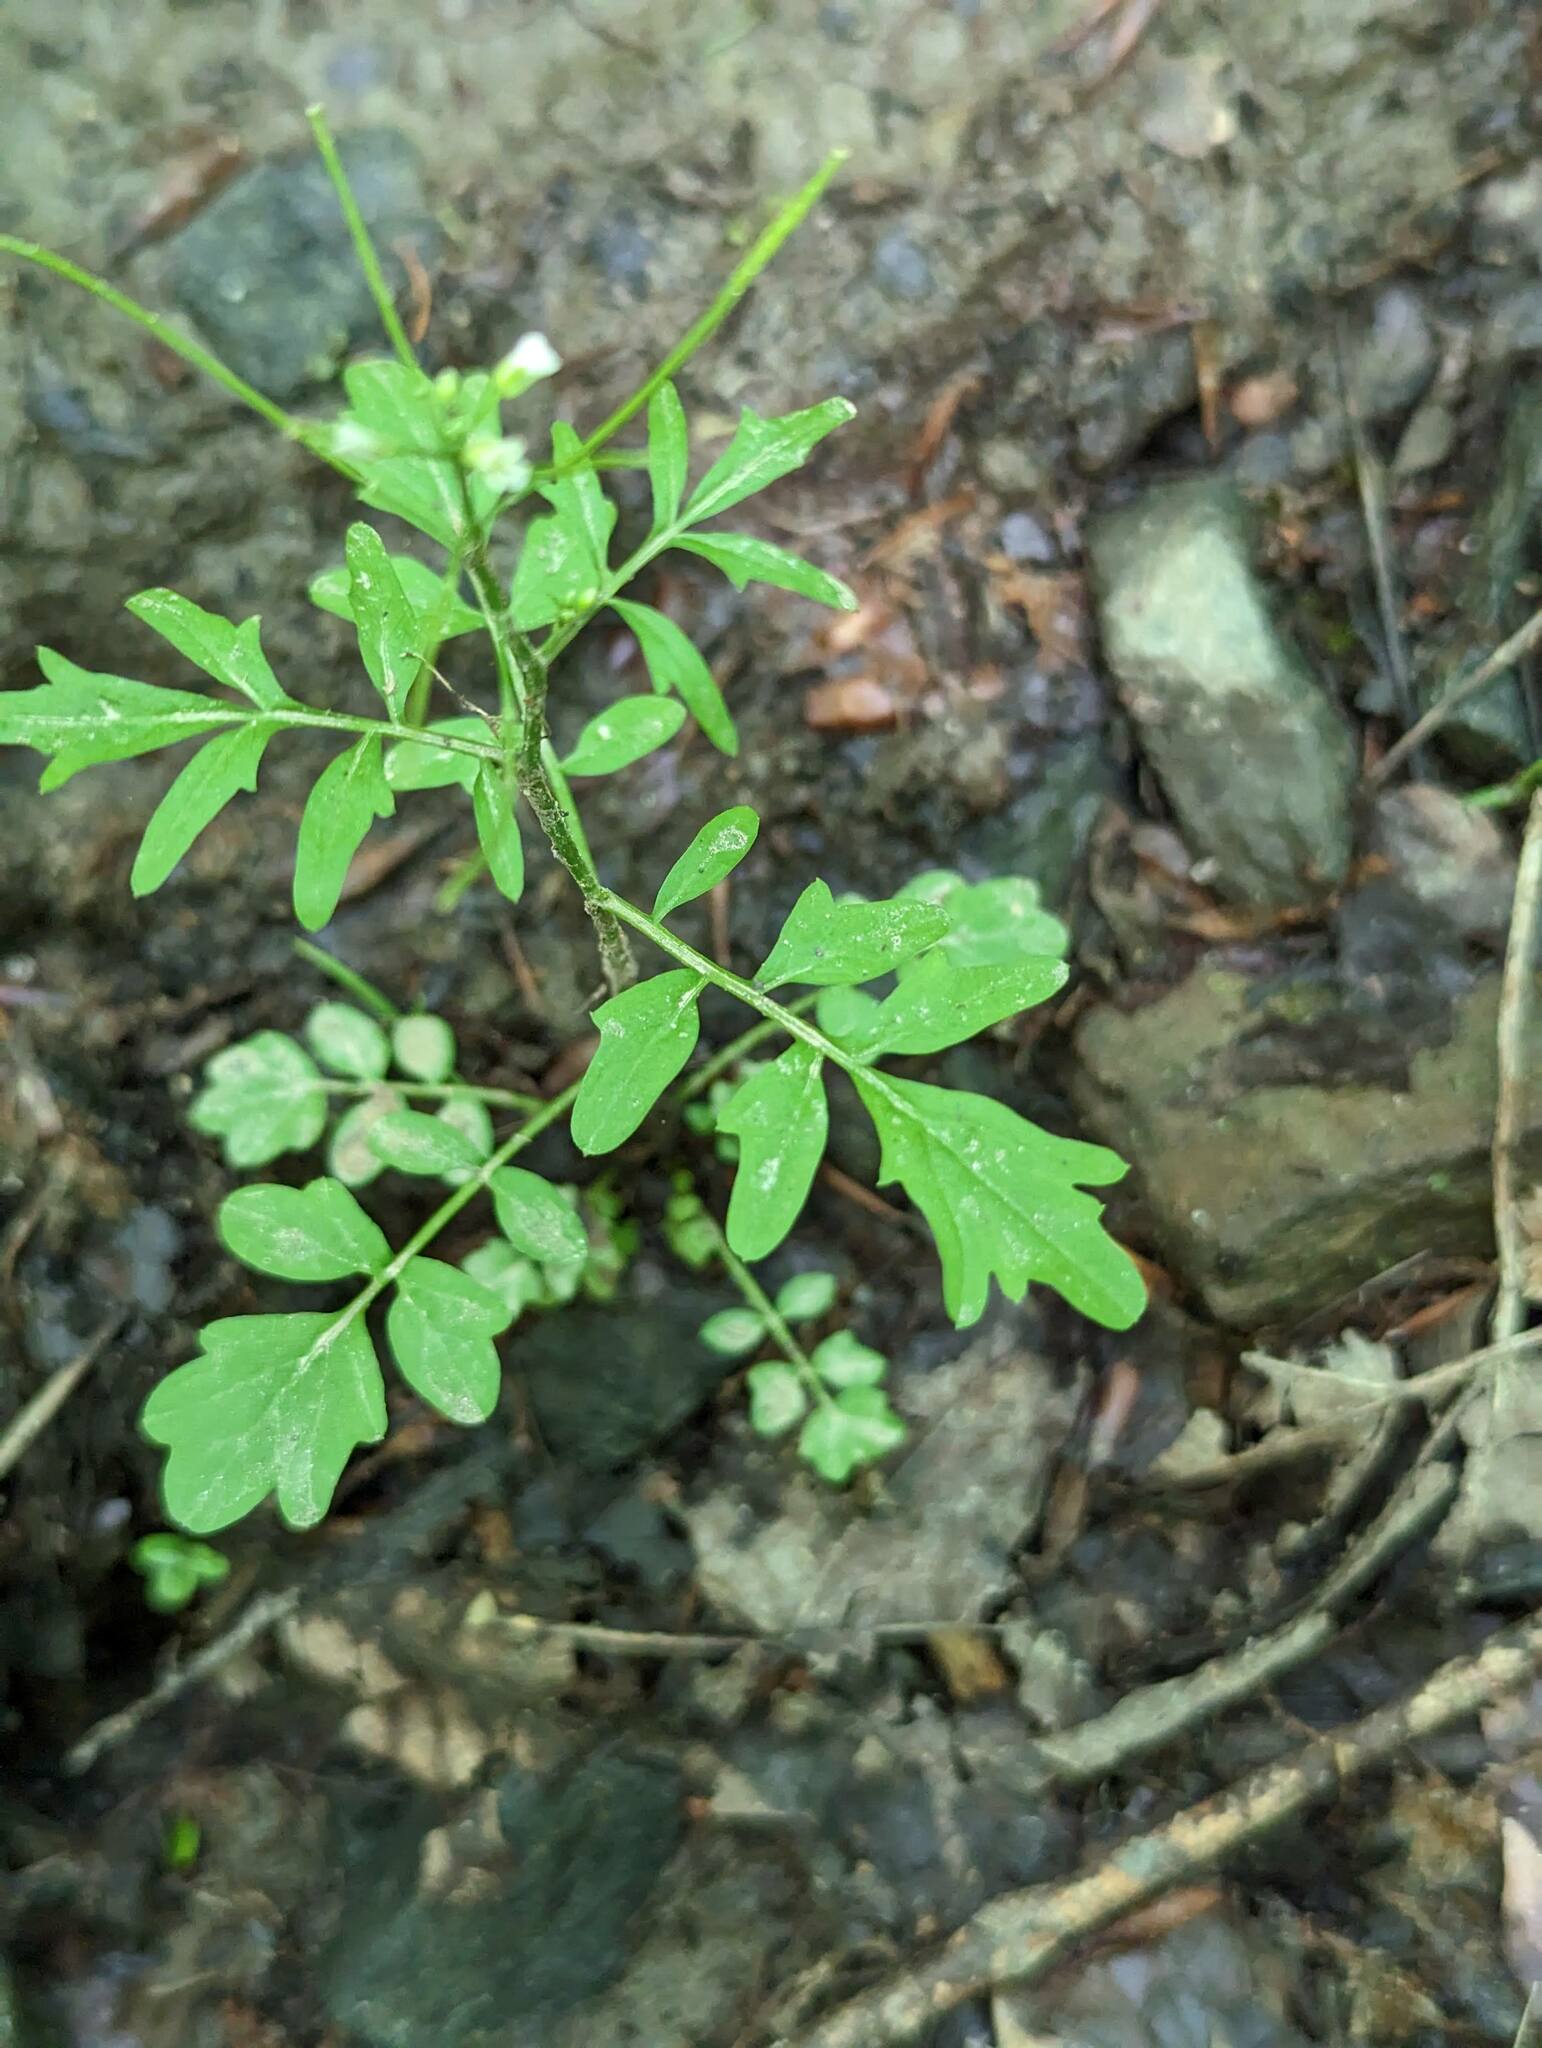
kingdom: Plantae
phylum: Tracheophyta
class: Magnoliopsida
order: Brassicales
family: Brassicaceae
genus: Cardamine
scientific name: Cardamine pensylvanica
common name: Pennsylvania bittercress
